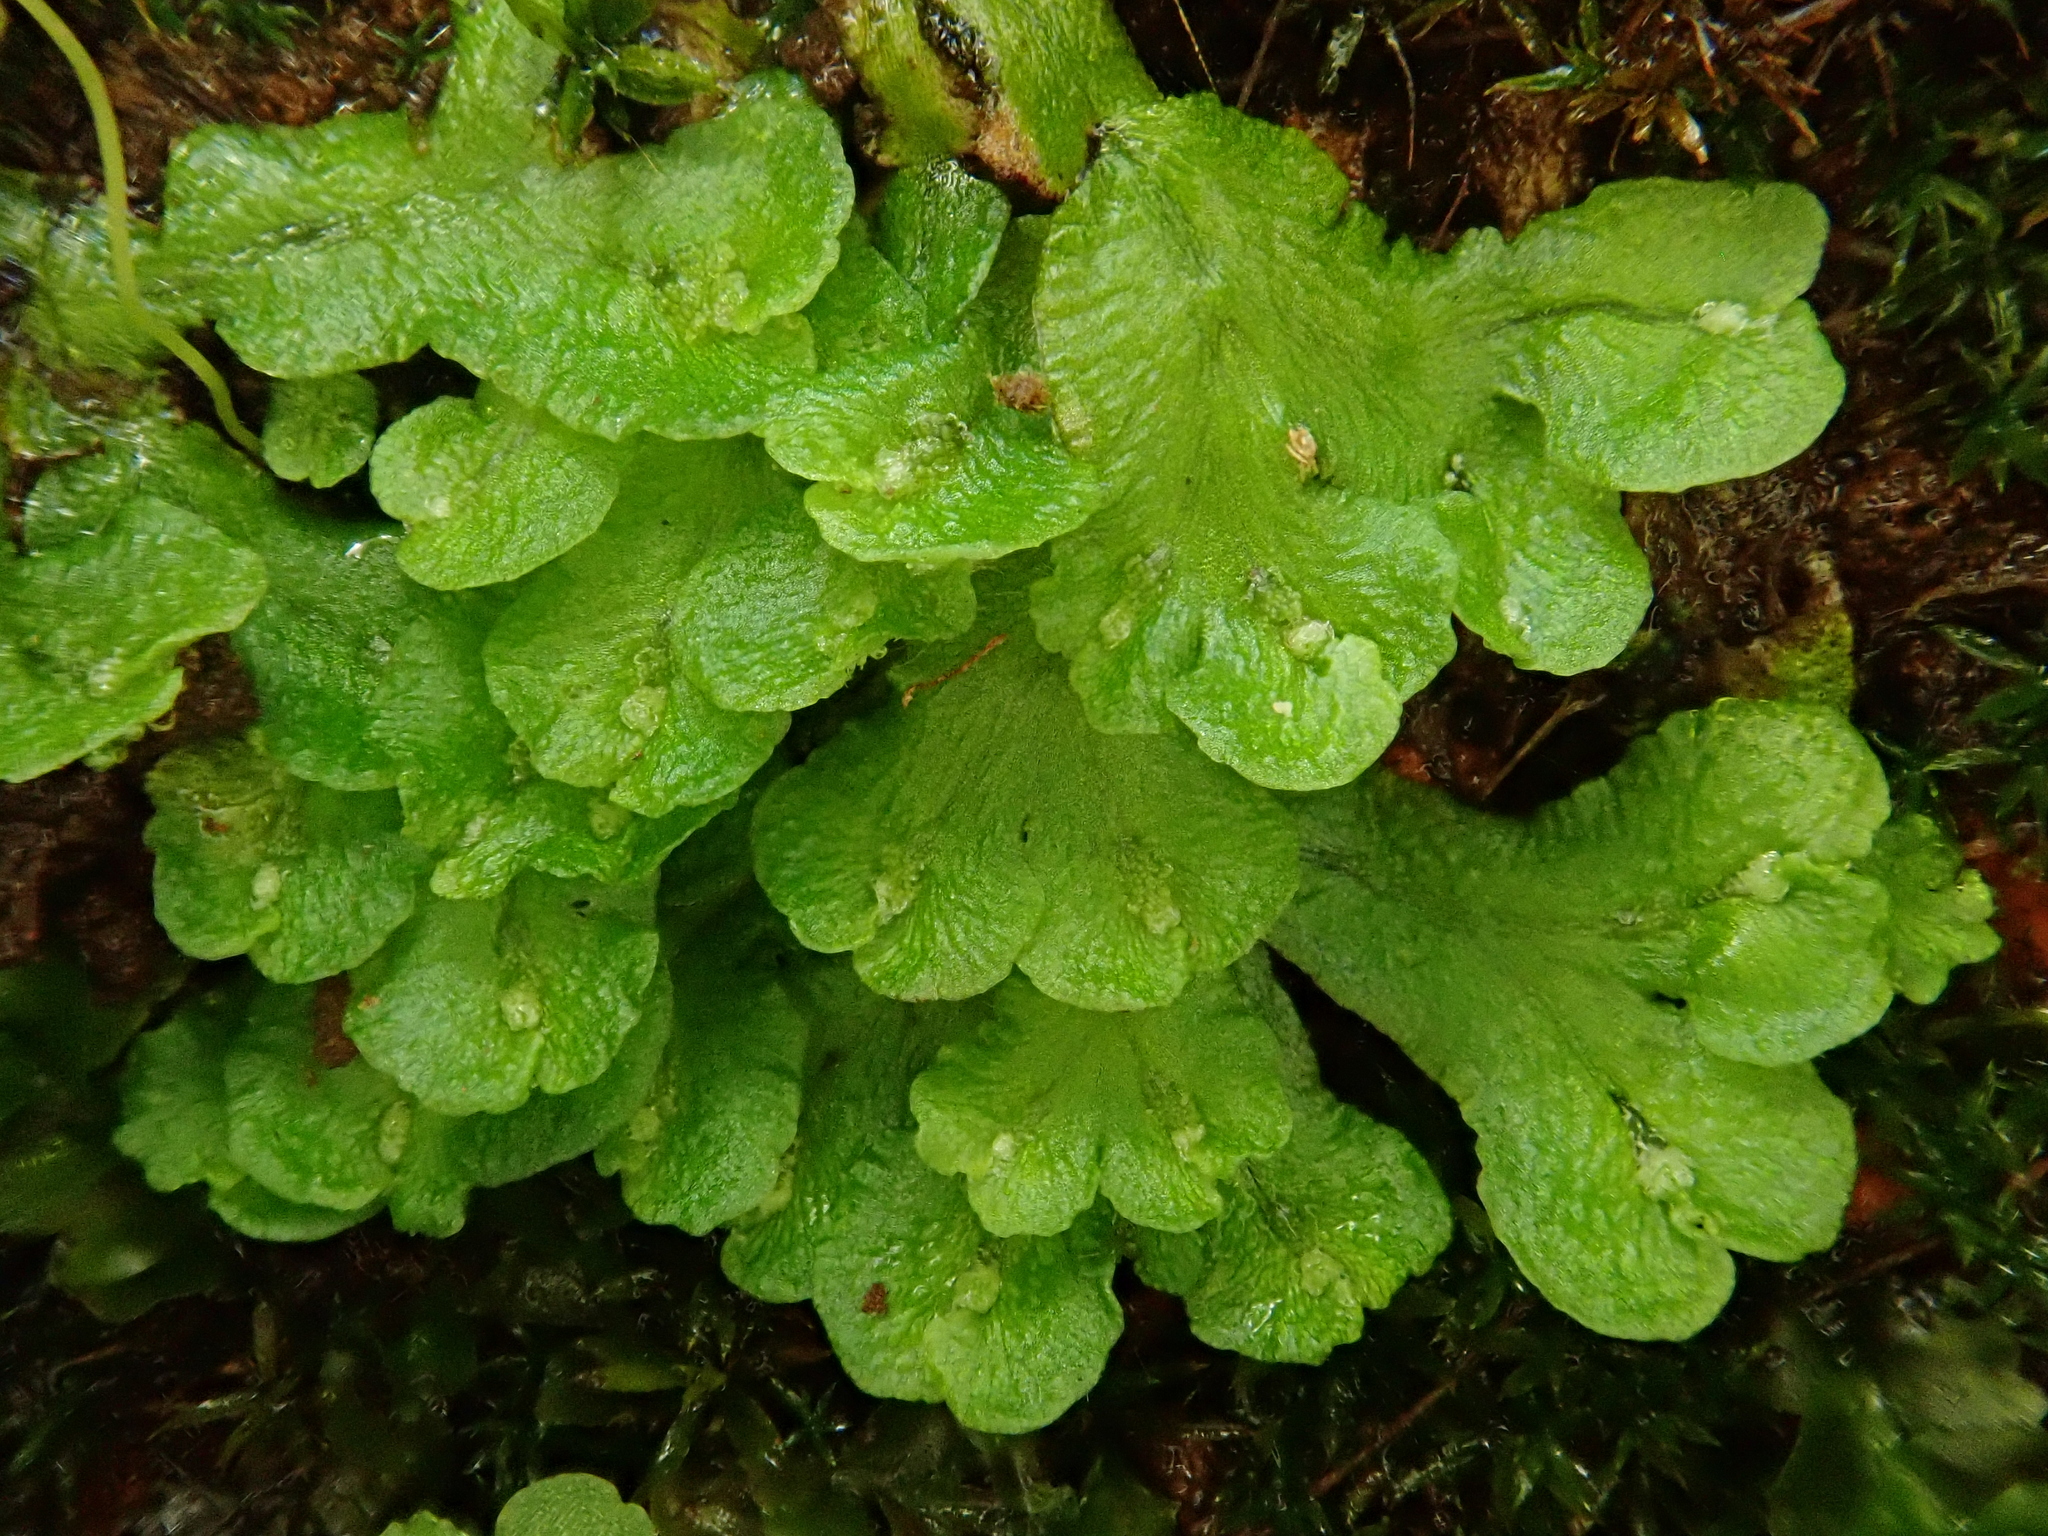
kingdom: Plantae
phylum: Marchantiophyta
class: Marchantiopsida
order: Marchantiales
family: Aytoniaceae
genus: Asterella
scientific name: Asterella africana
